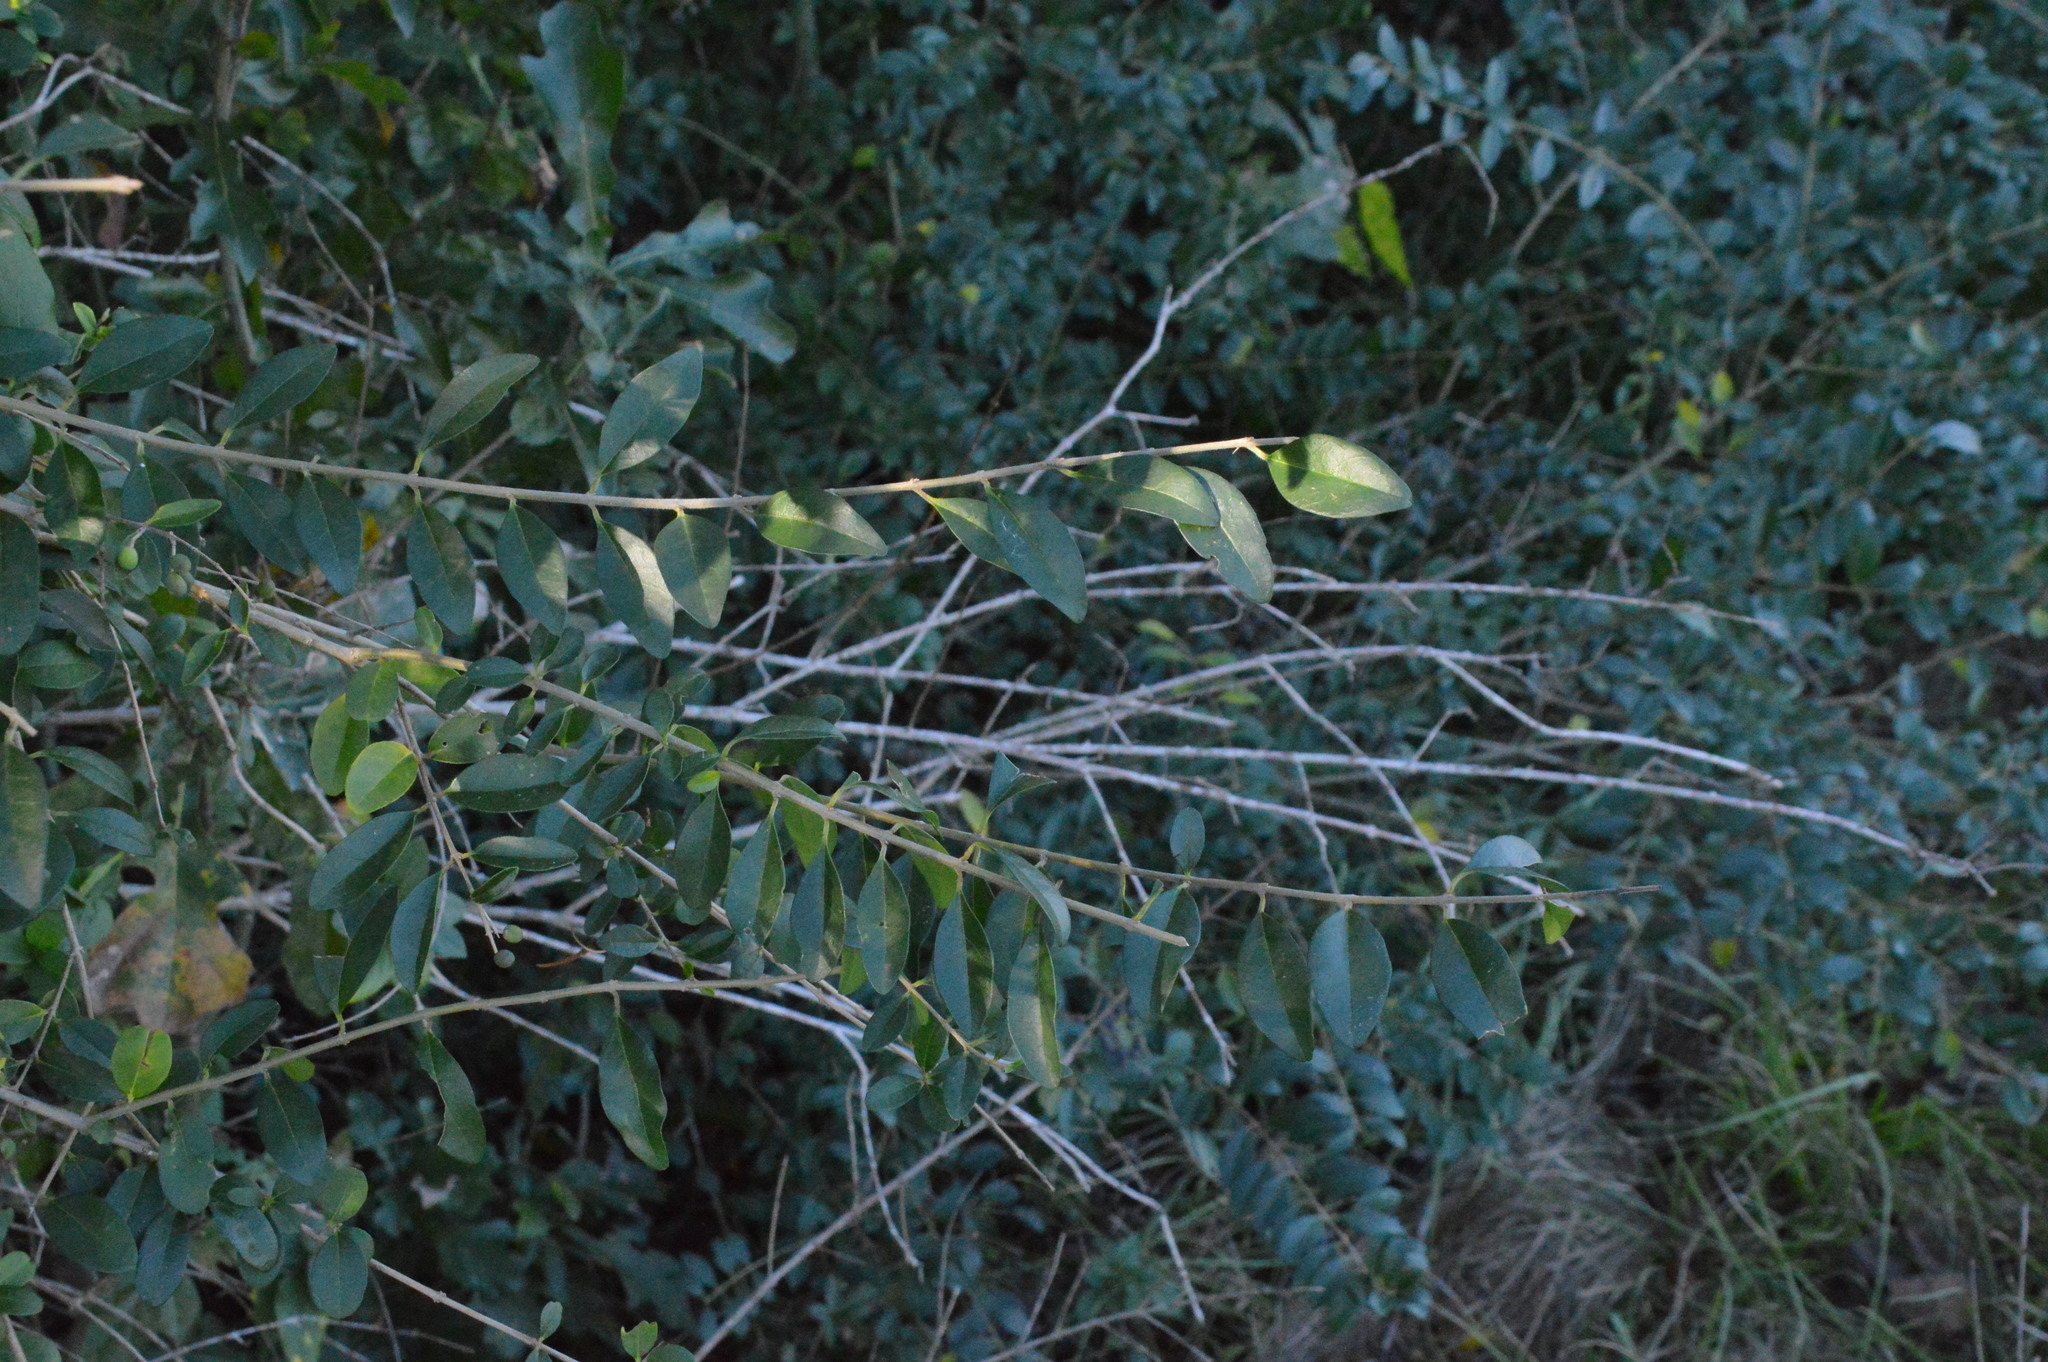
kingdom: Plantae
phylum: Tracheophyta
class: Magnoliopsida
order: Lamiales
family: Oleaceae
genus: Ligustrum
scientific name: Ligustrum sinense
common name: Chinese privet
